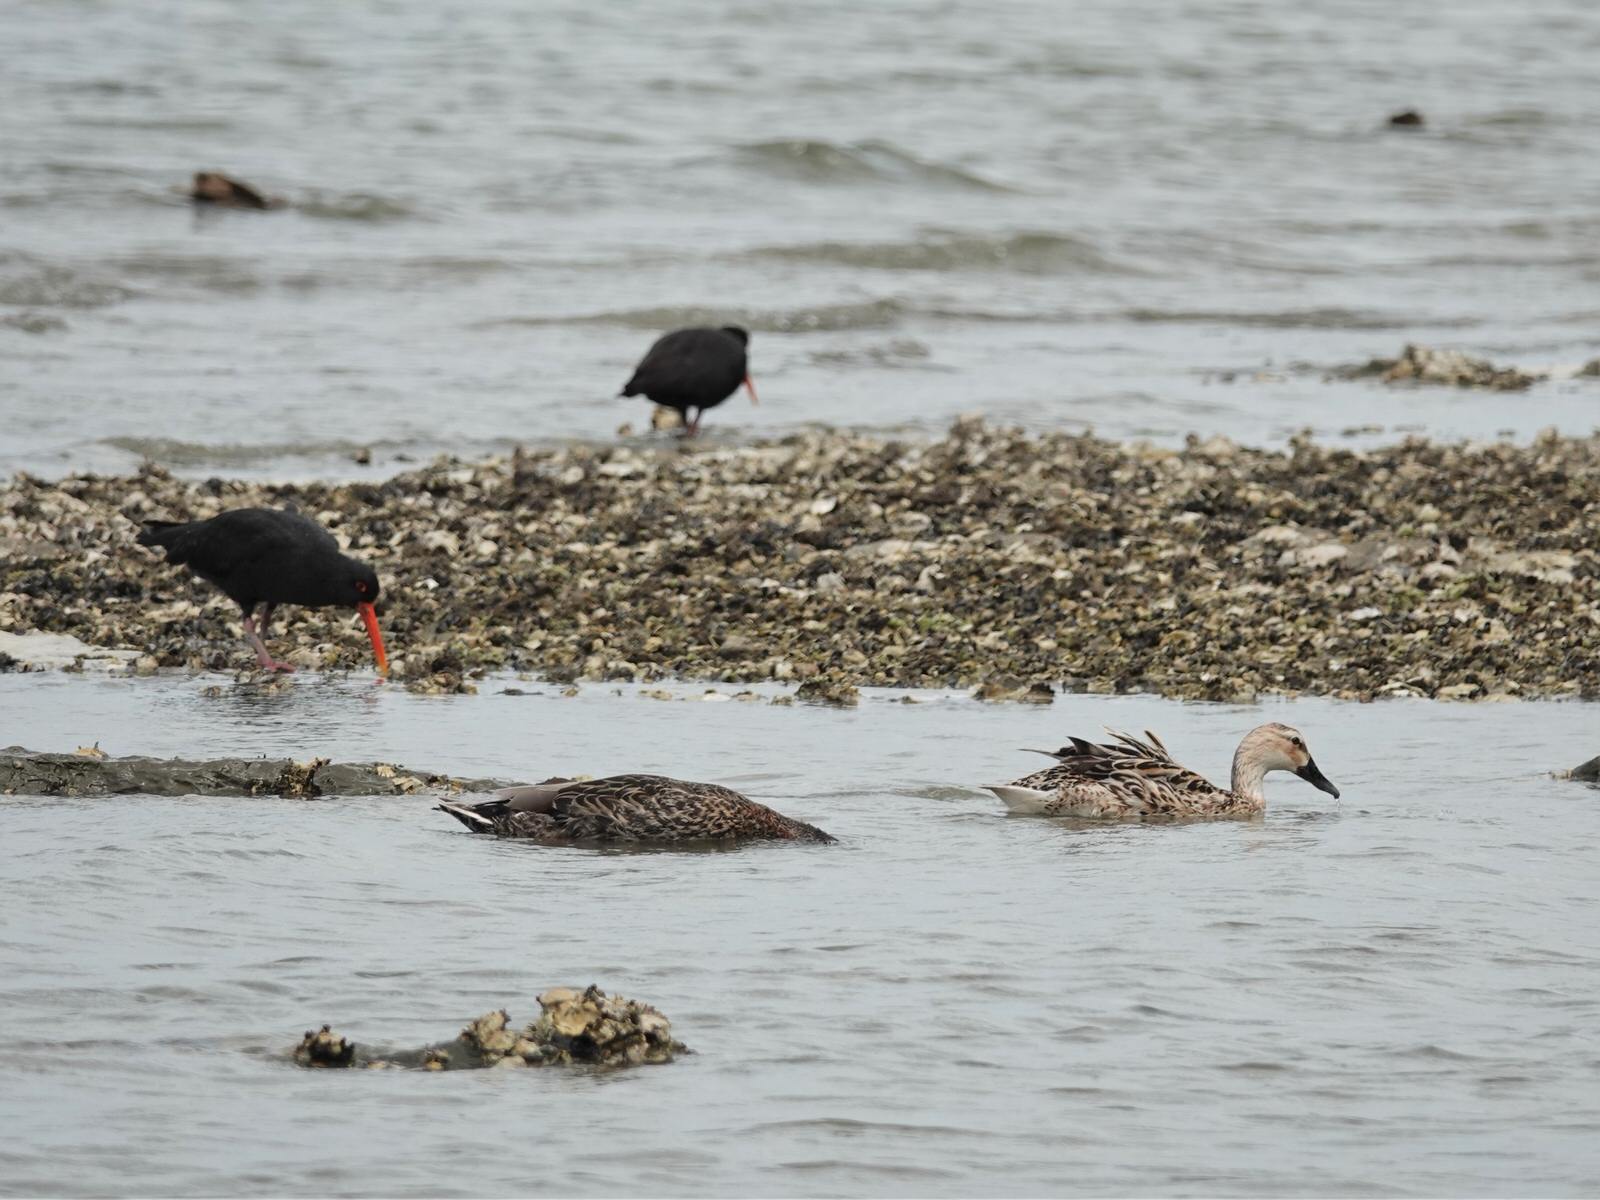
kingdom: Animalia
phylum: Chordata
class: Aves
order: Anseriformes
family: Anatidae
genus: Anas
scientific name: Anas
